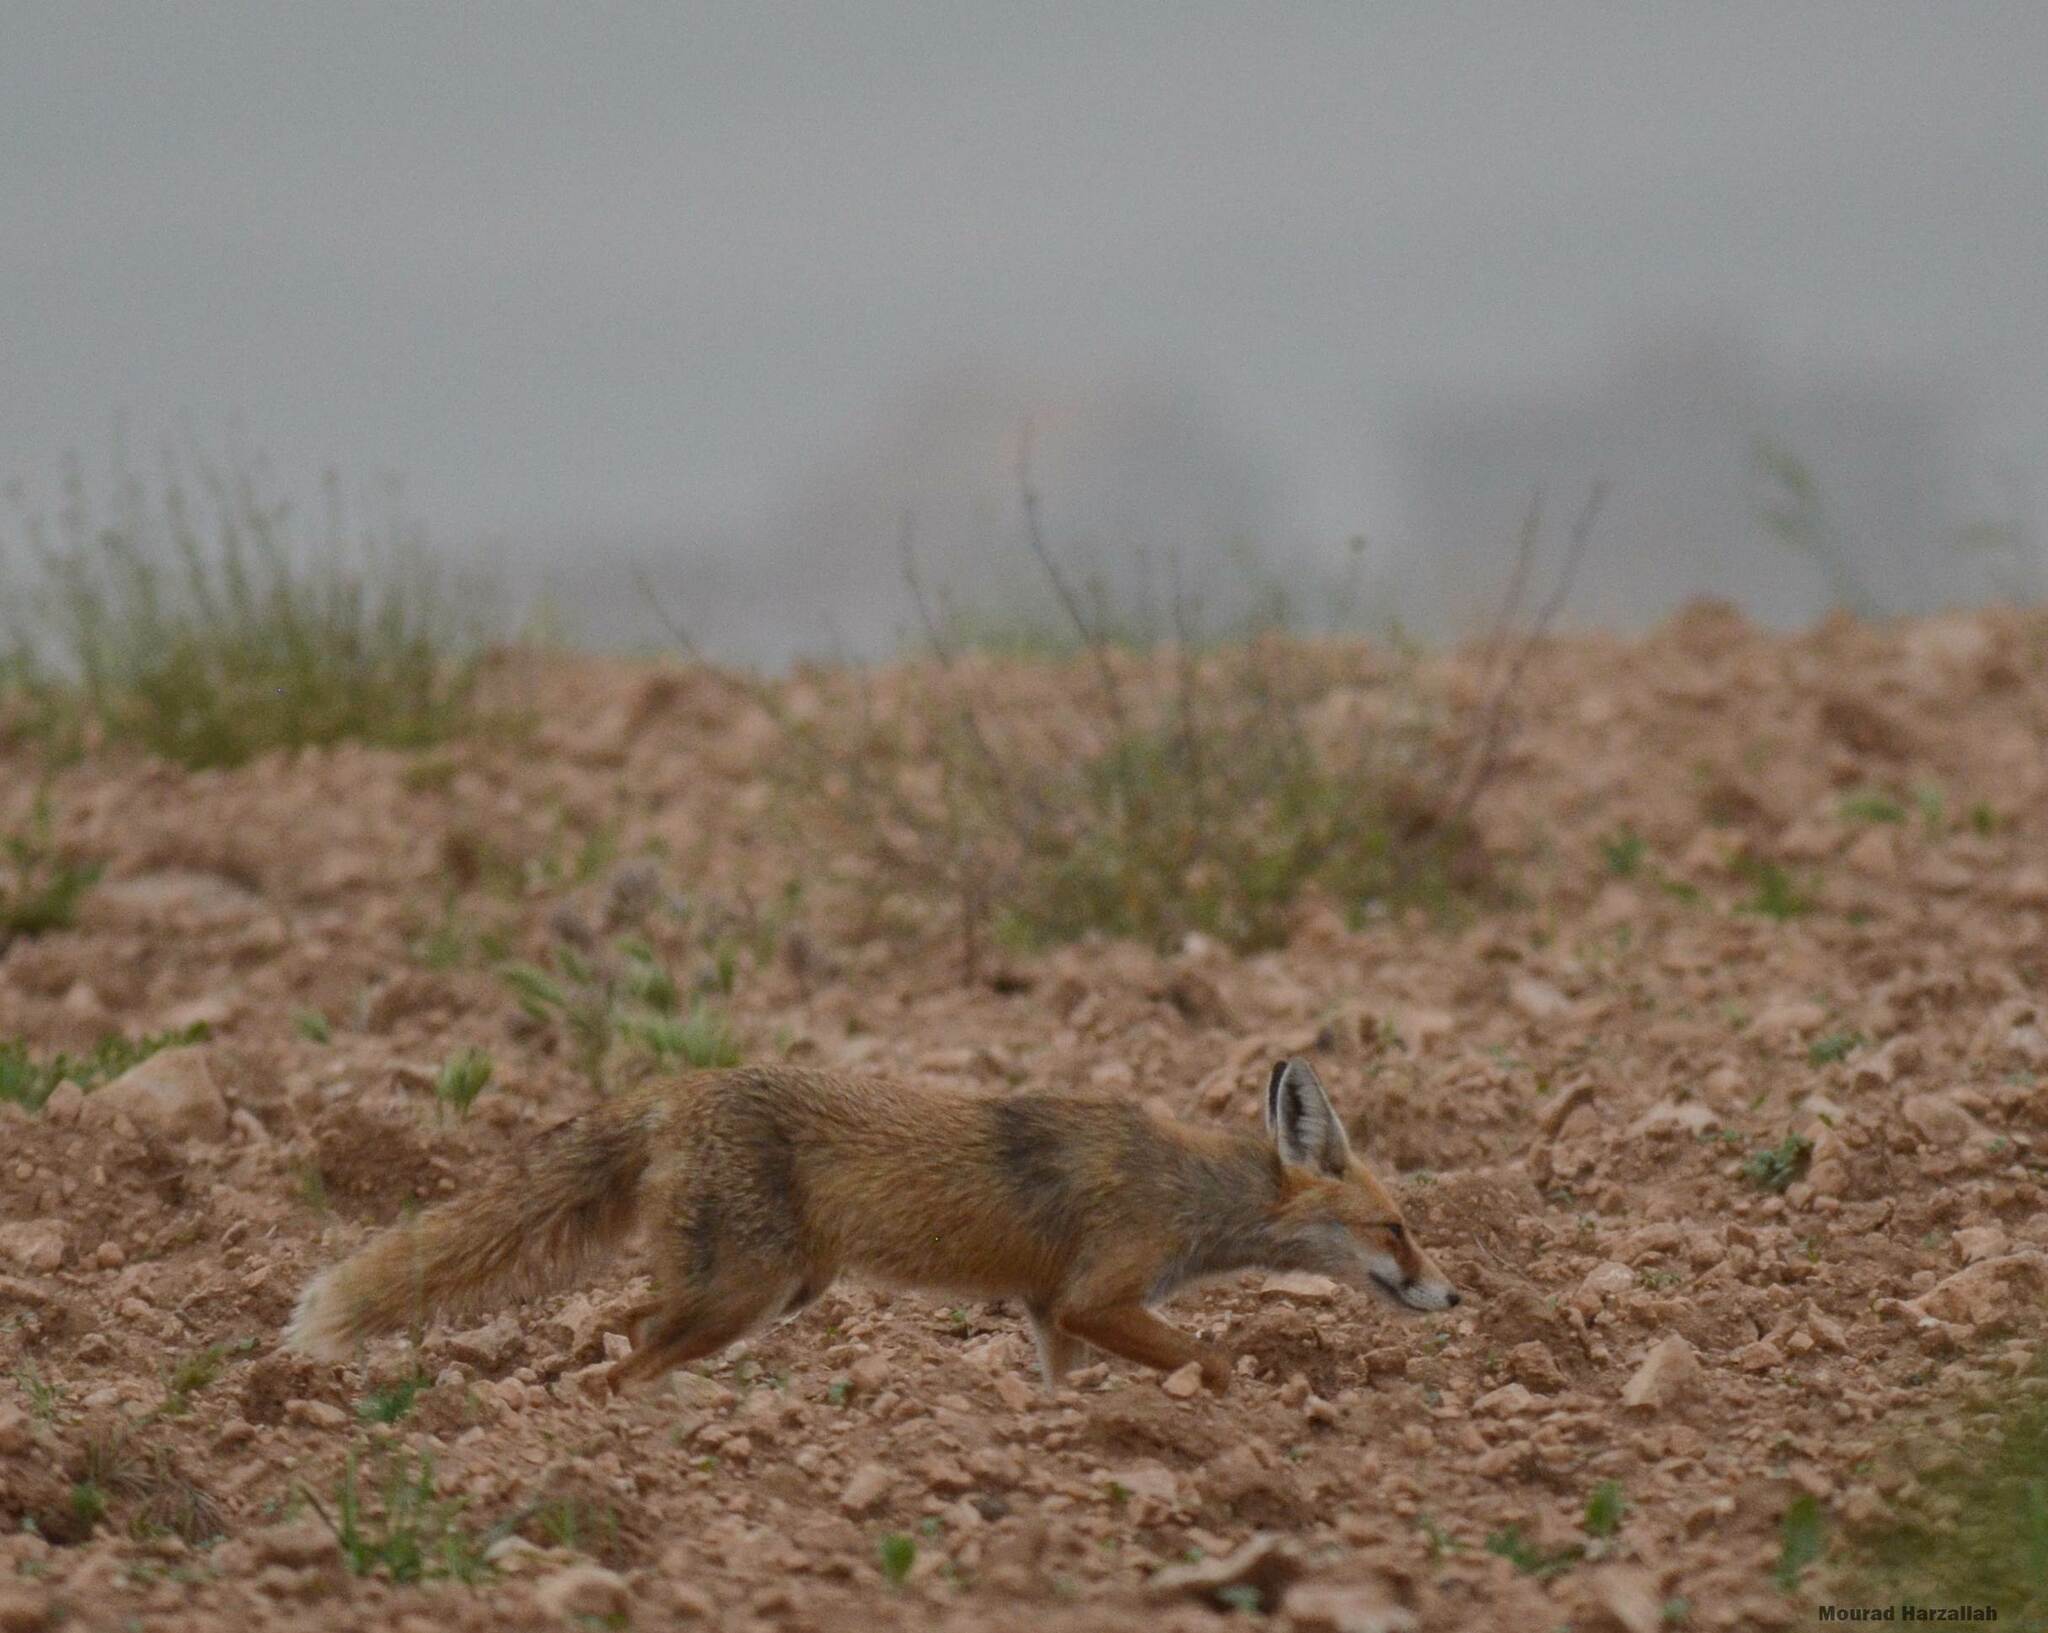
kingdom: Animalia
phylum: Chordata
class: Mammalia
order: Carnivora
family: Canidae
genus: Vulpes
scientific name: Vulpes vulpes
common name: Red fox
